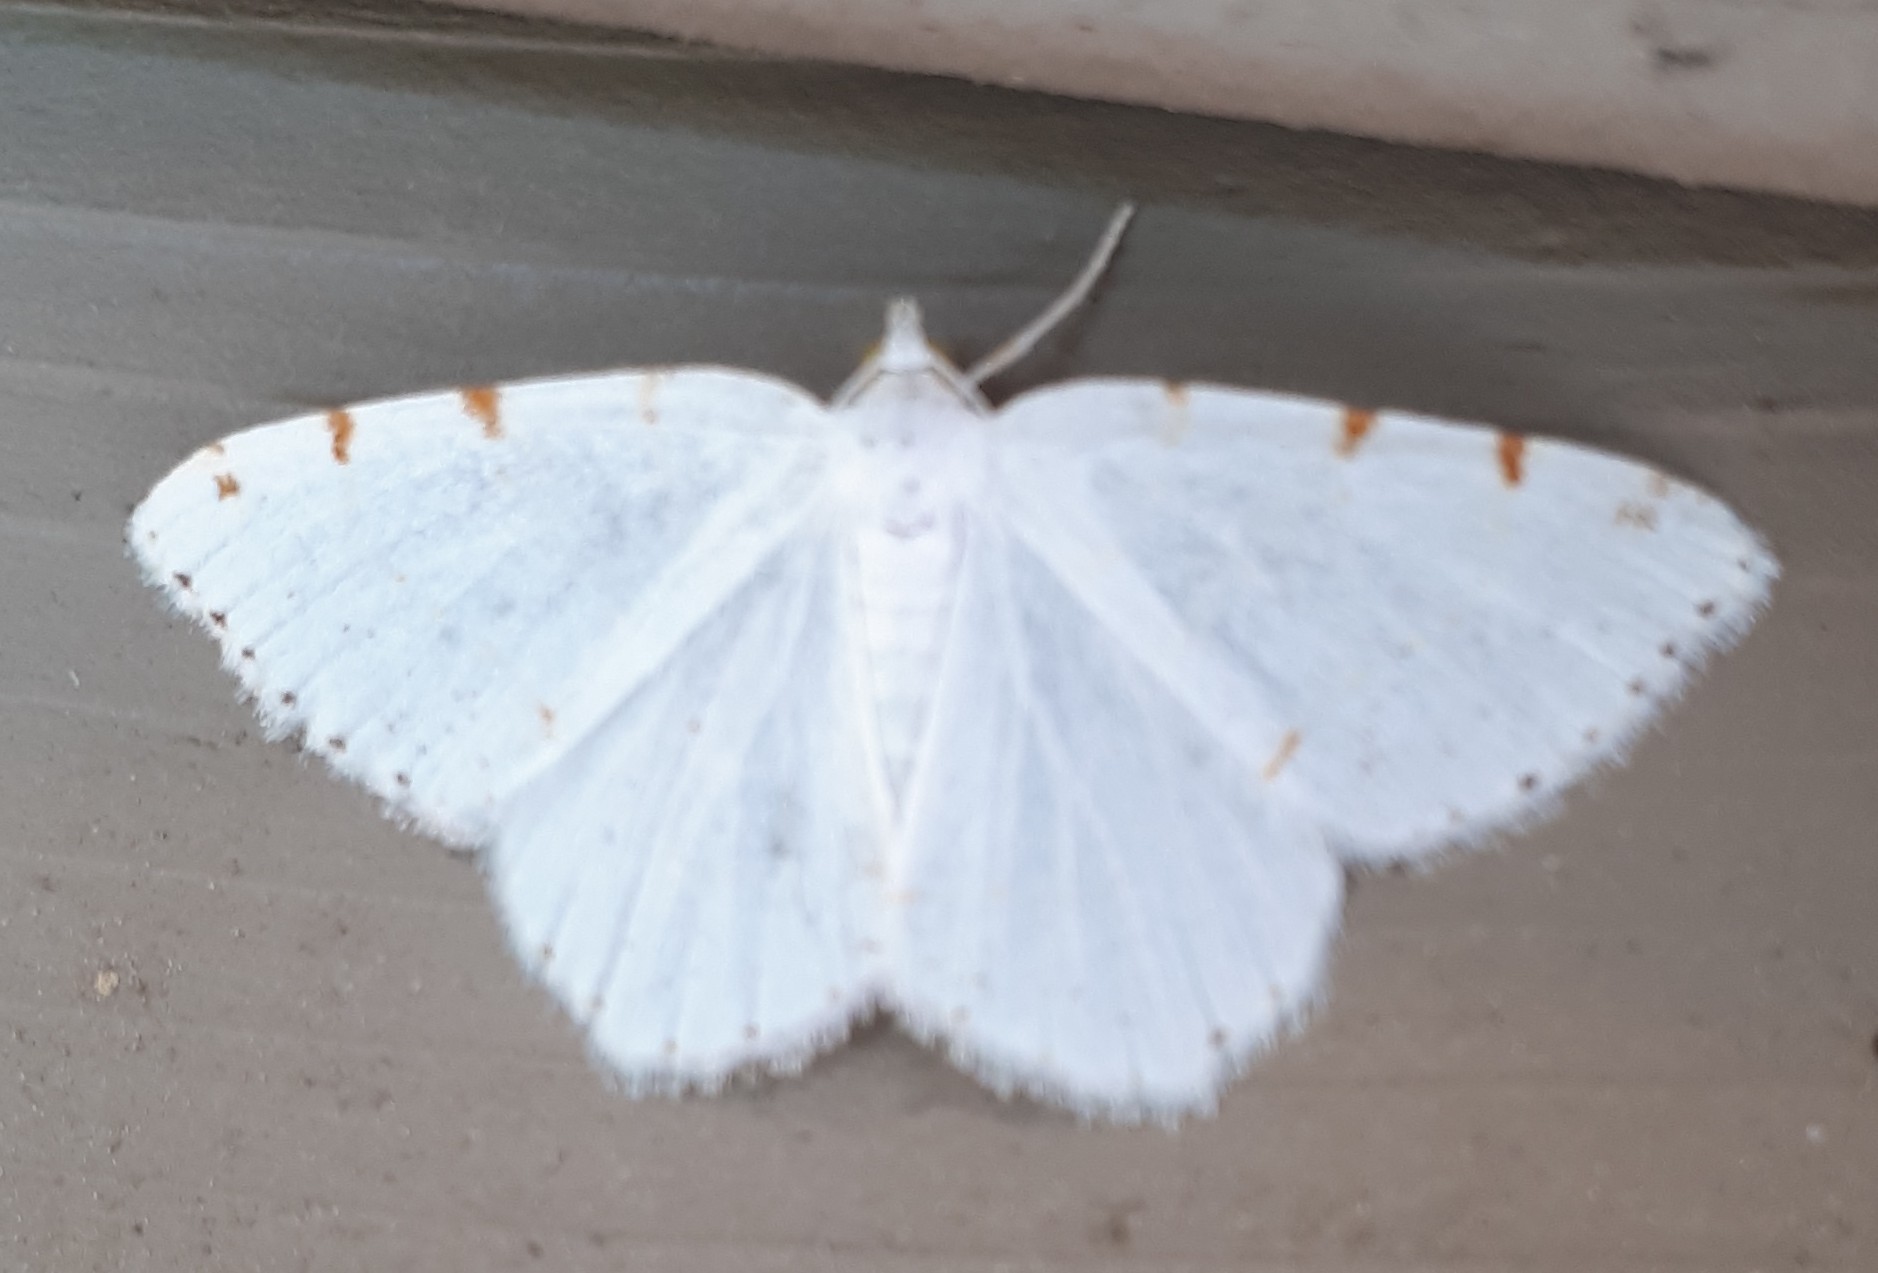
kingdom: Animalia
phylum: Arthropoda
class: Insecta
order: Lepidoptera
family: Geometridae
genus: Macaria
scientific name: Macaria pustularia
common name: Lesser maple spanworm moth
